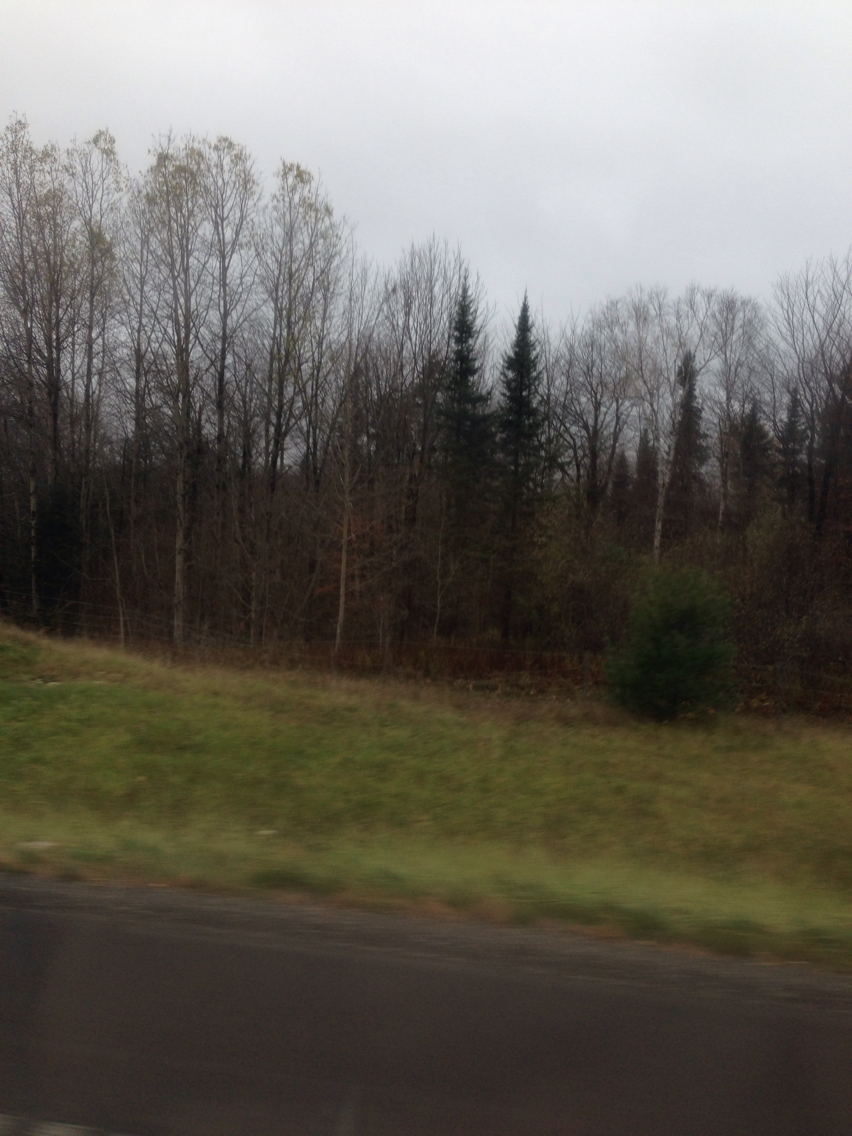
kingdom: Plantae
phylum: Tracheophyta
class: Pinopsida
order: Pinales
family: Pinaceae
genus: Abies
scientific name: Abies balsamea
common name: Balsam fir
